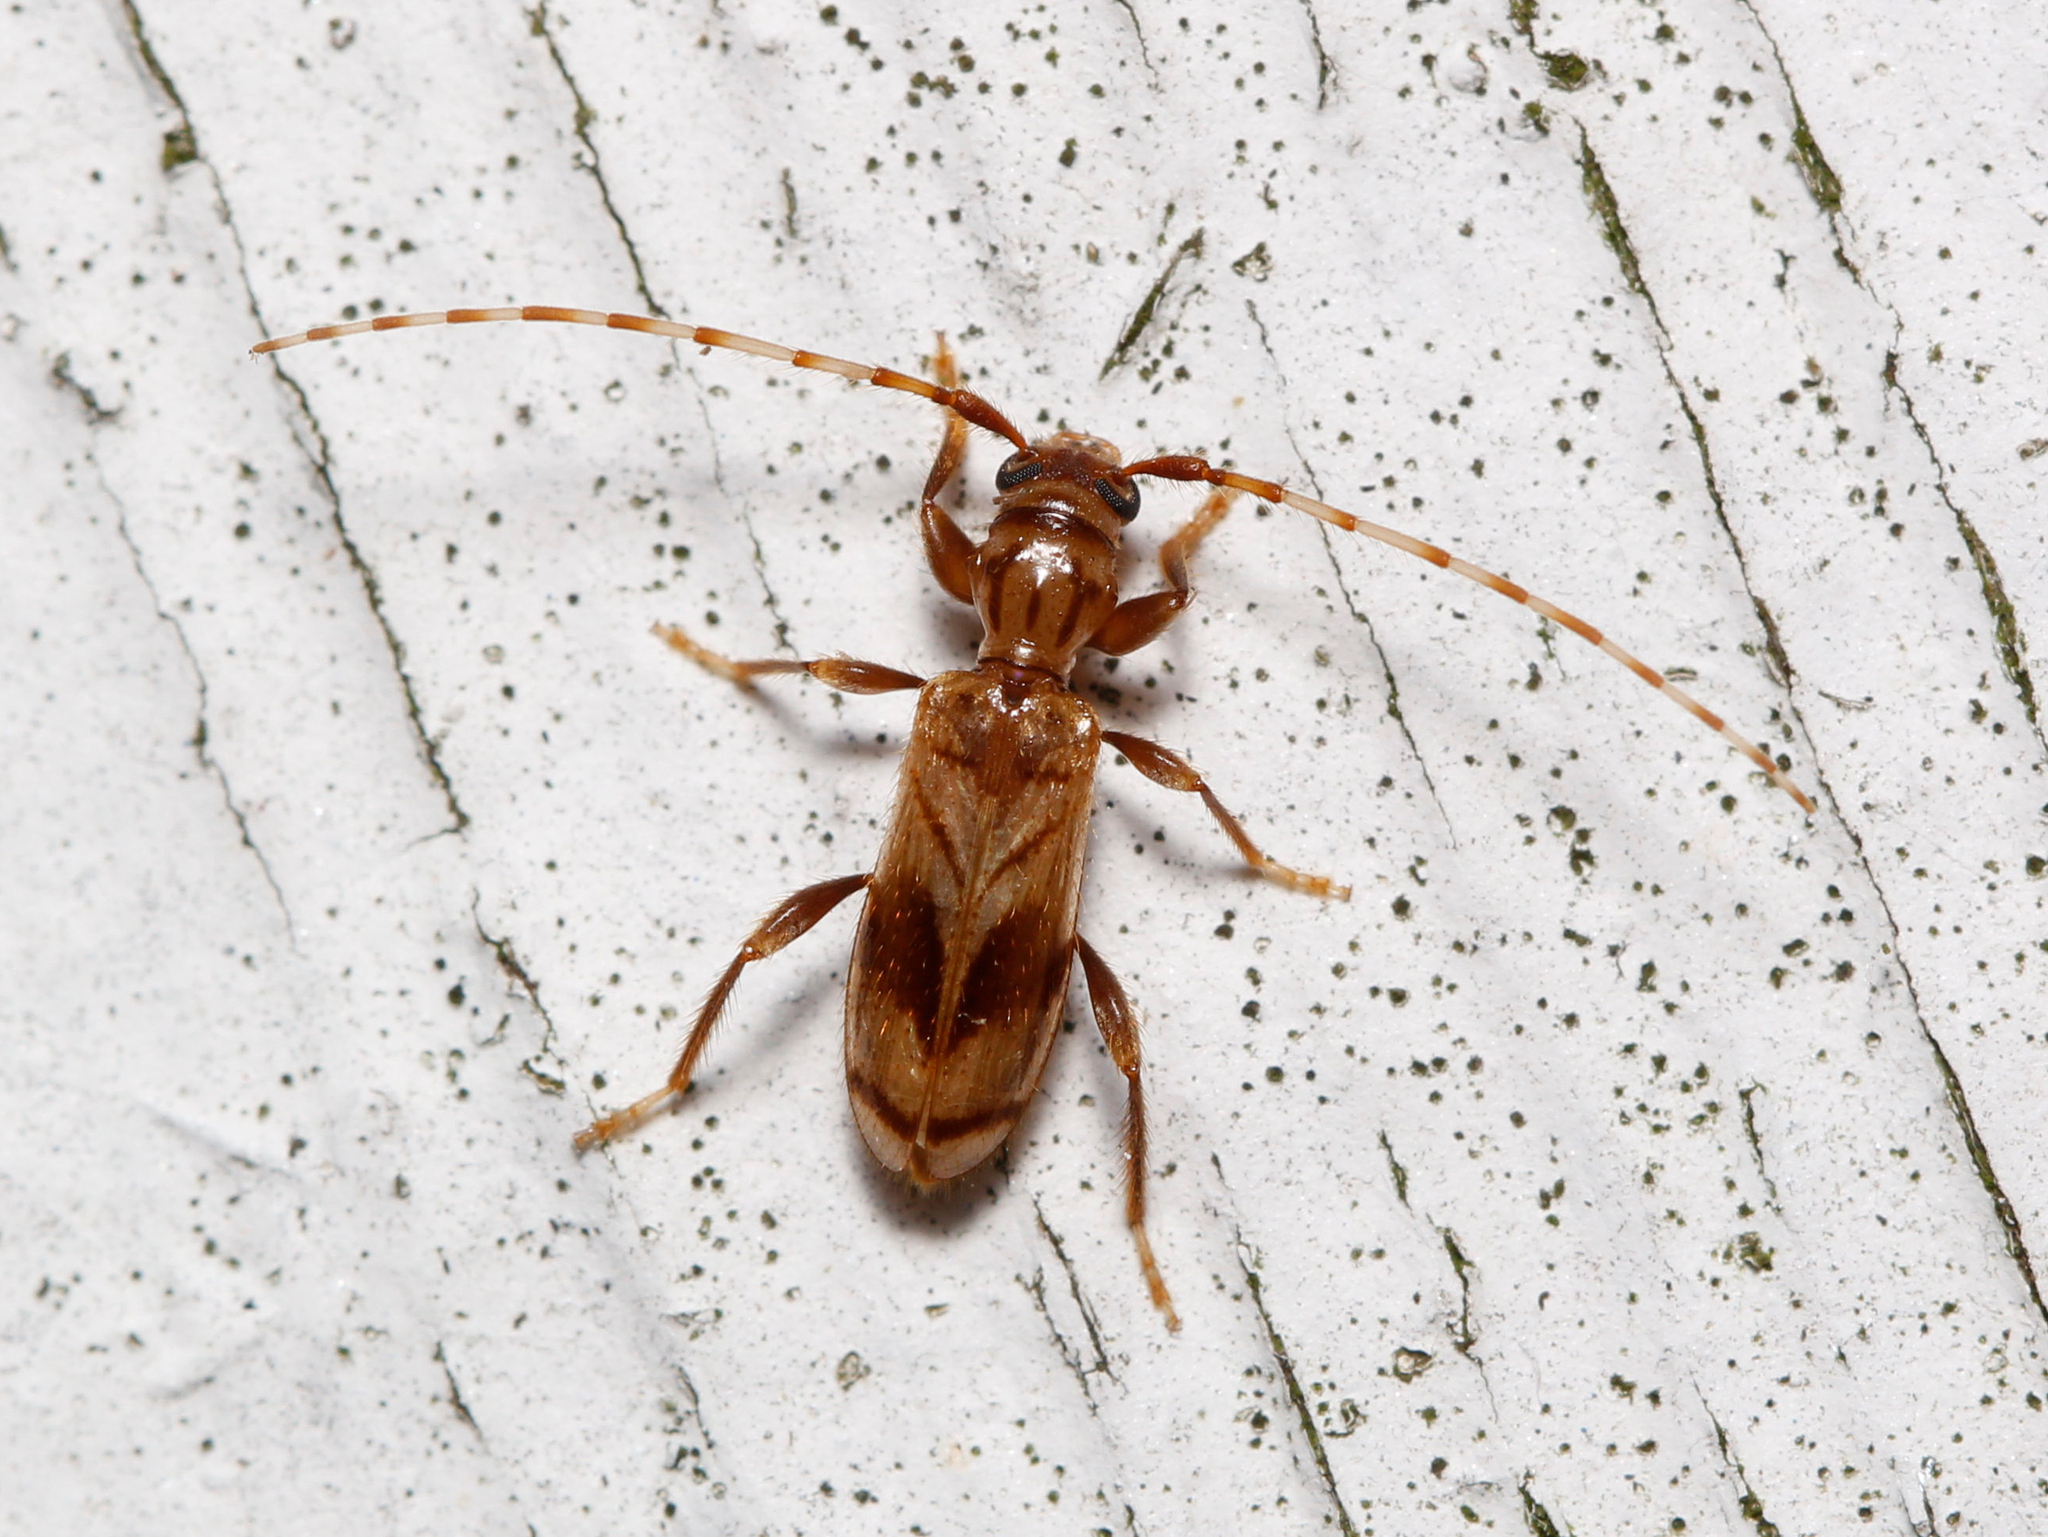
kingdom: Animalia
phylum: Arthropoda
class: Insecta
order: Coleoptera
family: Cerambycidae
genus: Obrium
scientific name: Obrium maculatum
